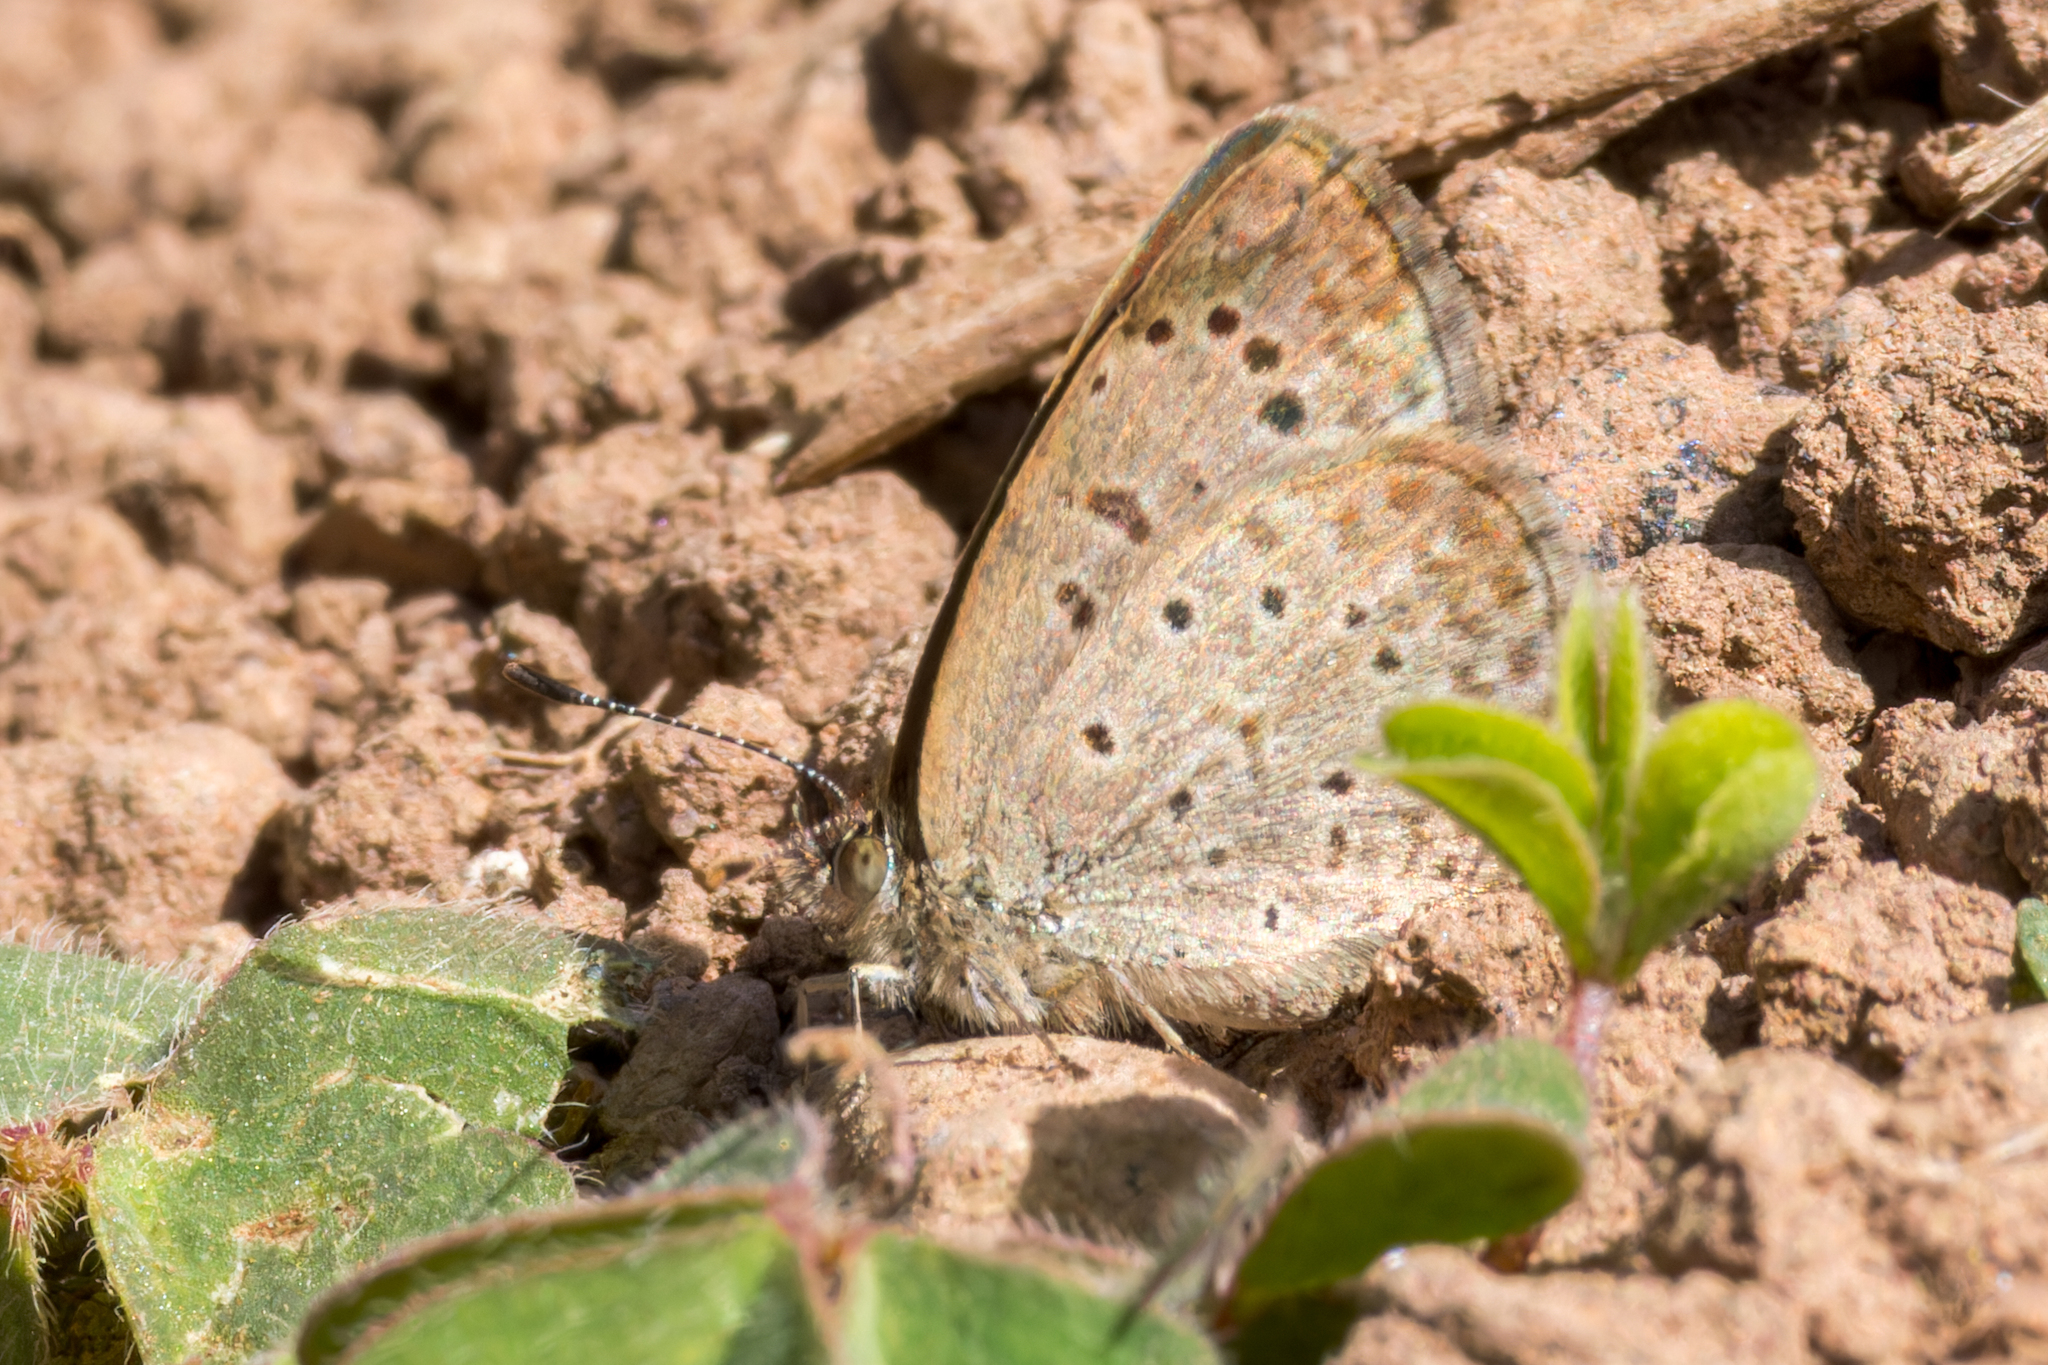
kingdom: Animalia
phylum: Arthropoda
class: Insecta
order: Lepidoptera
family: Lycaenidae
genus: Zizeeria
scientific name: Zizeeria knysna
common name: African grass blue
